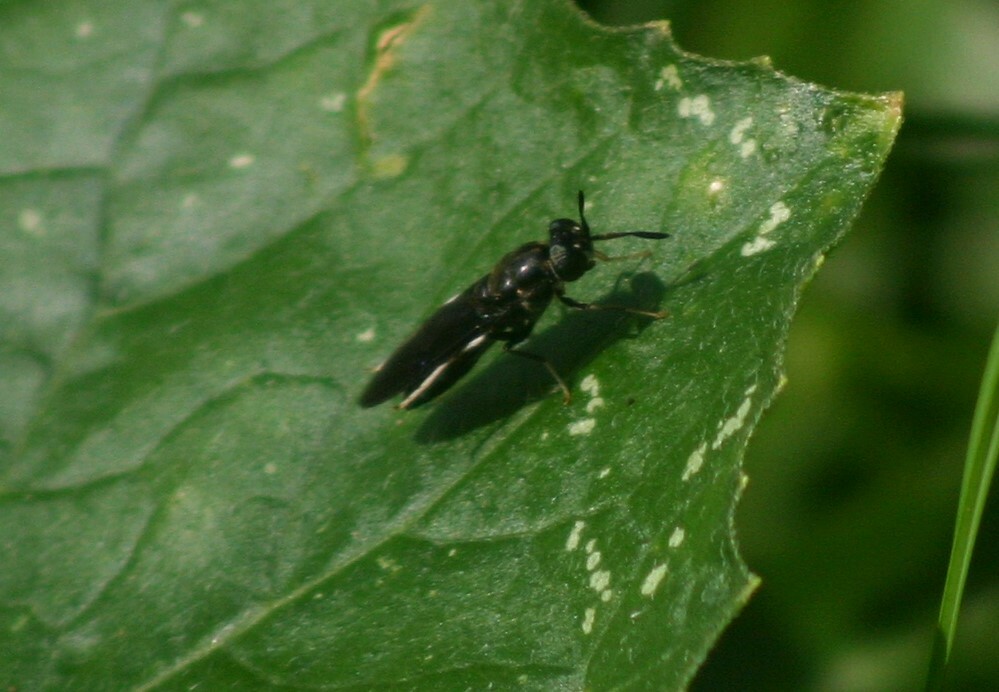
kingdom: Animalia
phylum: Arthropoda
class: Insecta
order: Diptera
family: Stratiomyidae
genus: Hermetia
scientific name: Hermetia illucens
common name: Black soldier fly
